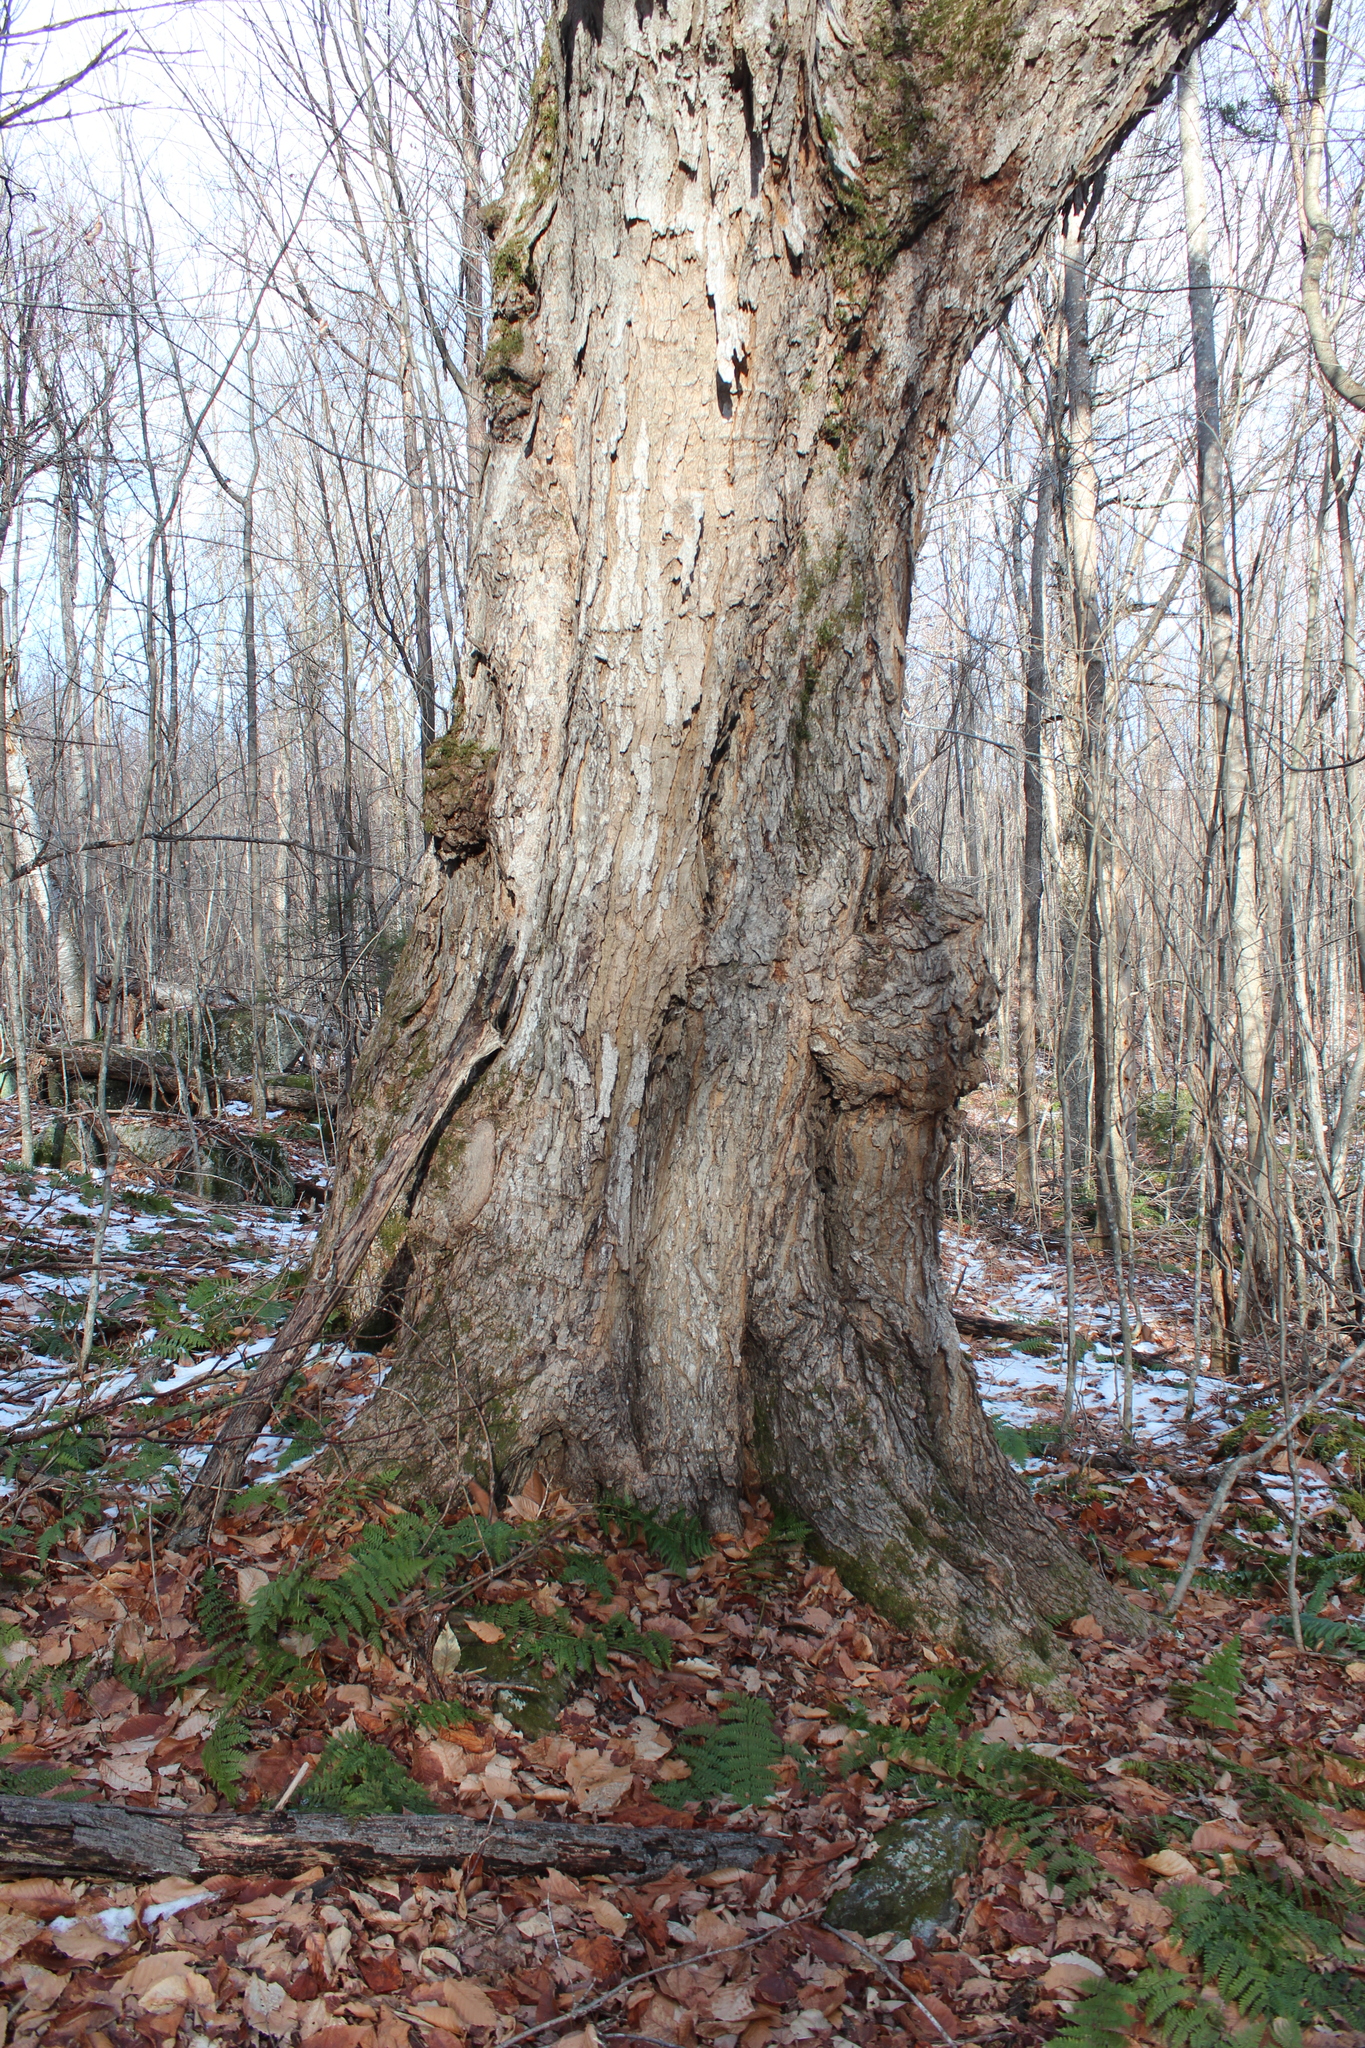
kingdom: Plantae
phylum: Tracheophyta
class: Magnoliopsida
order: Sapindales
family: Sapindaceae
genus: Acer
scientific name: Acer saccharum
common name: Sugar maple
